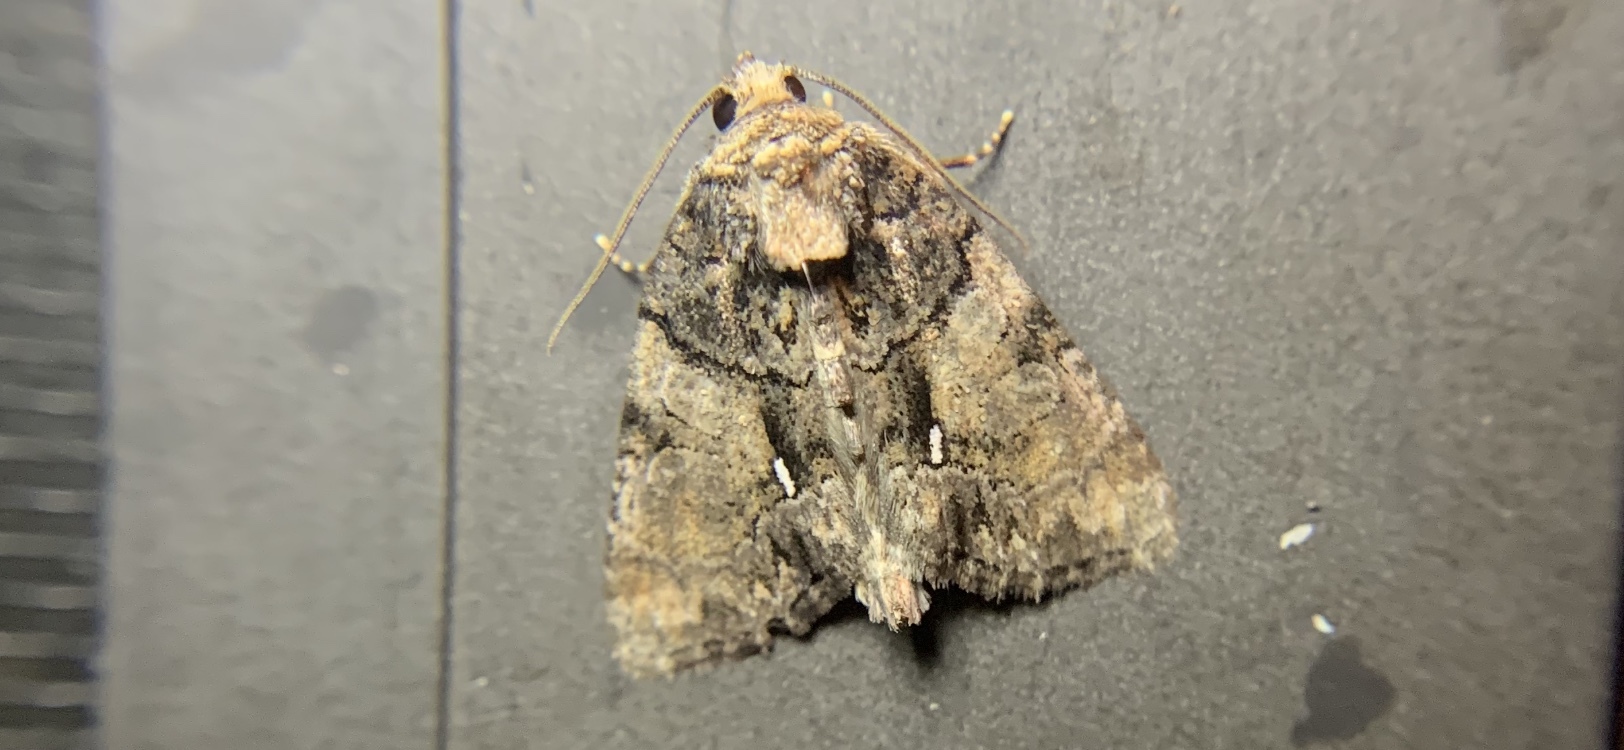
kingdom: Animalia
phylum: Arthropoda
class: Insecta
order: Lepidoptera
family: Noctuidae
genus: Chytonix
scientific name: Chytonix palliatricula
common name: Cloaked marvel
